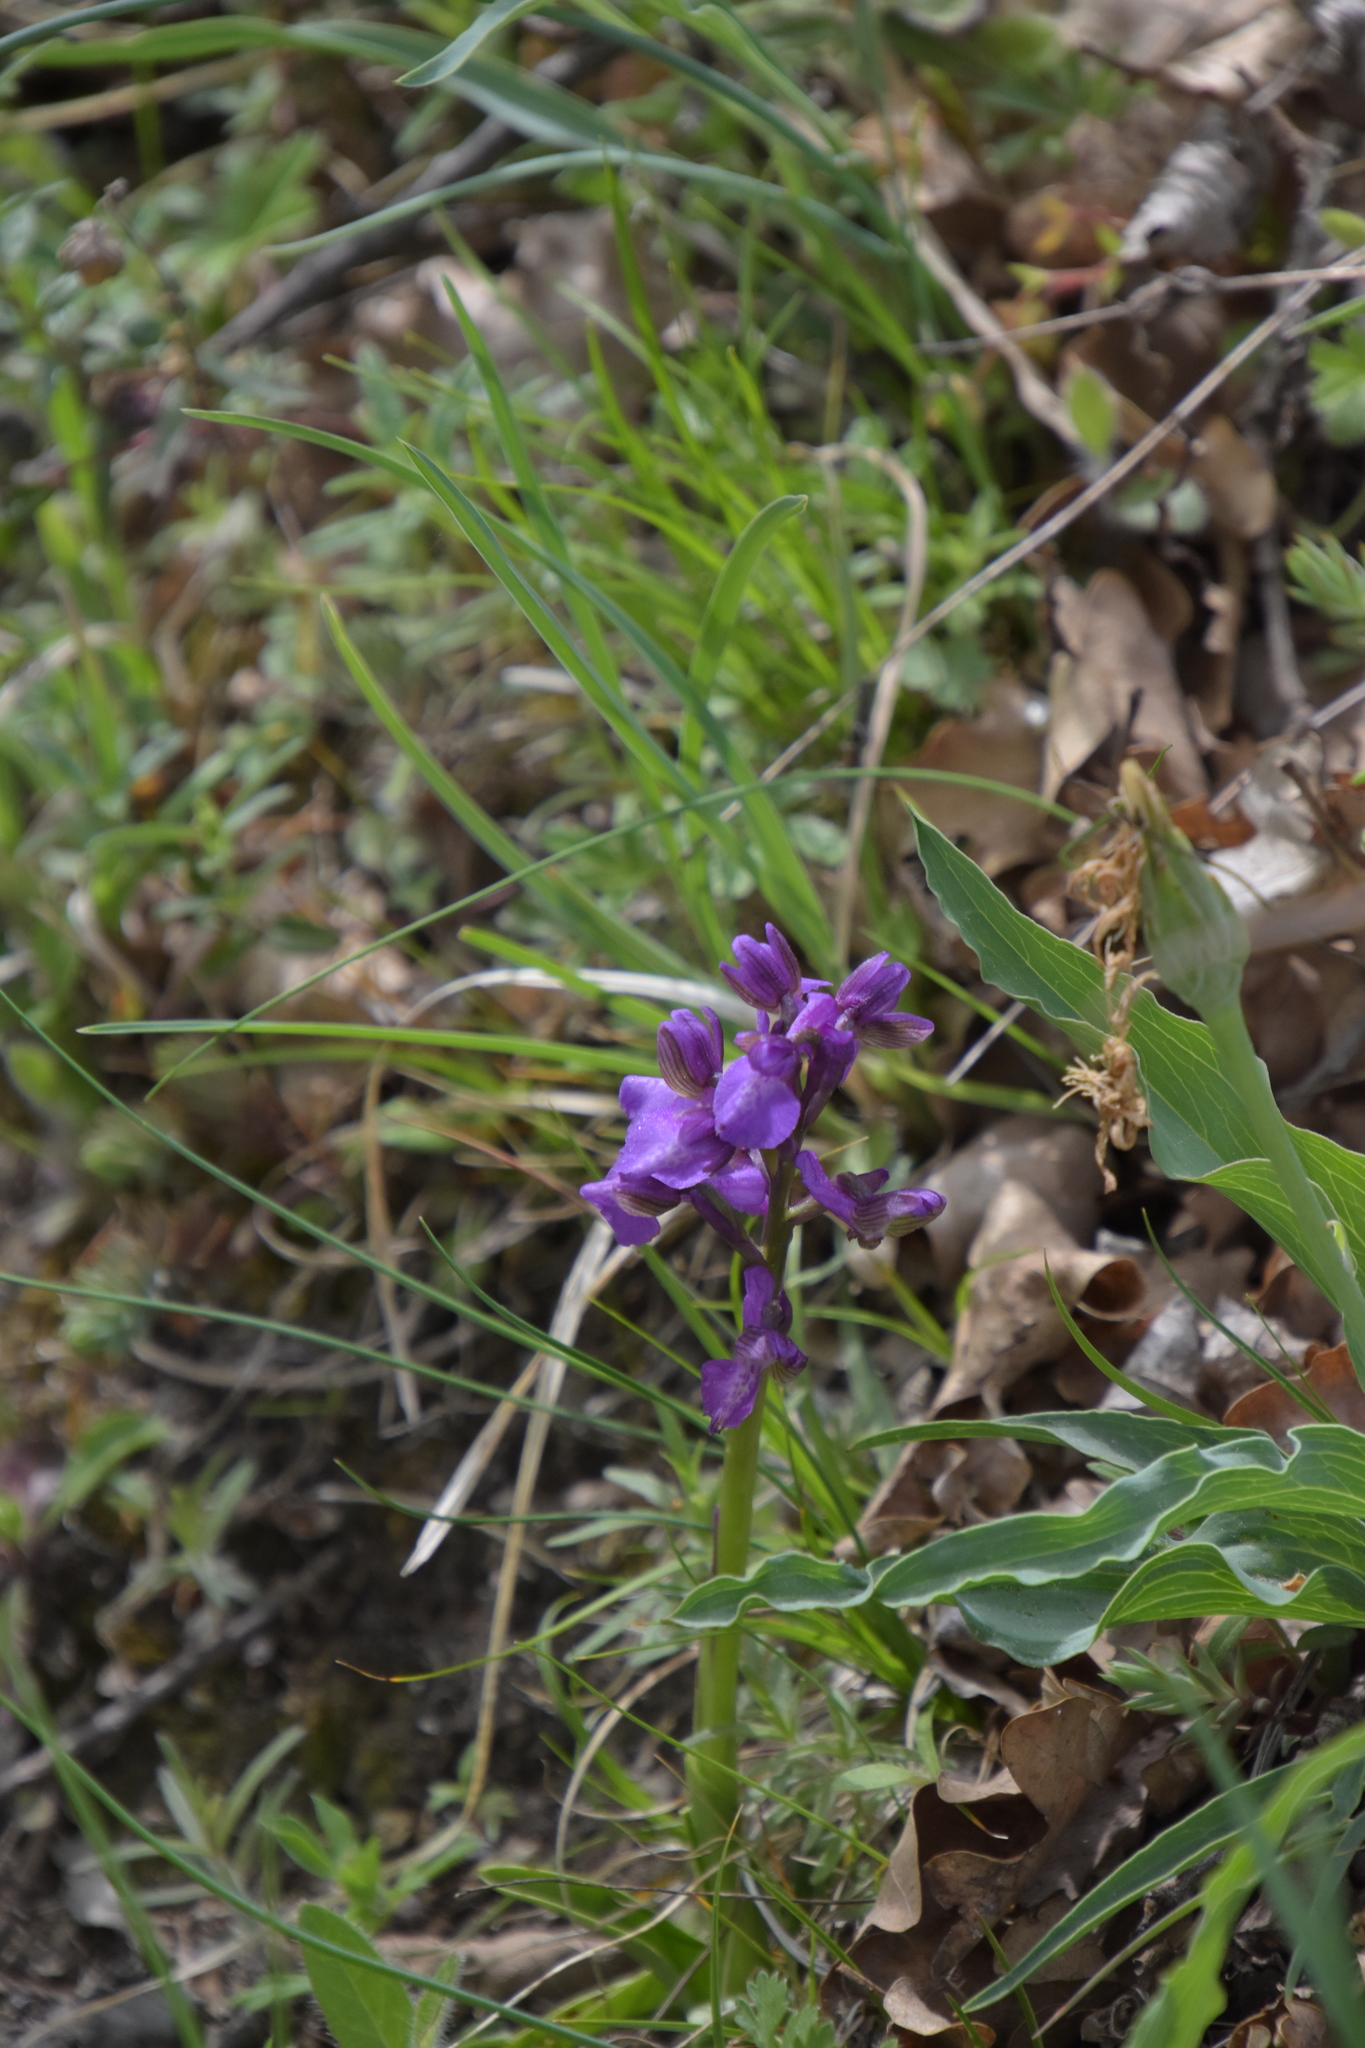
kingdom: Plantae
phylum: Tracheophyta
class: Liliopsida
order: Asparagales
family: Orchidaceae
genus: Anacamptis
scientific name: Anacamptis morio
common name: Green-winged orchid
